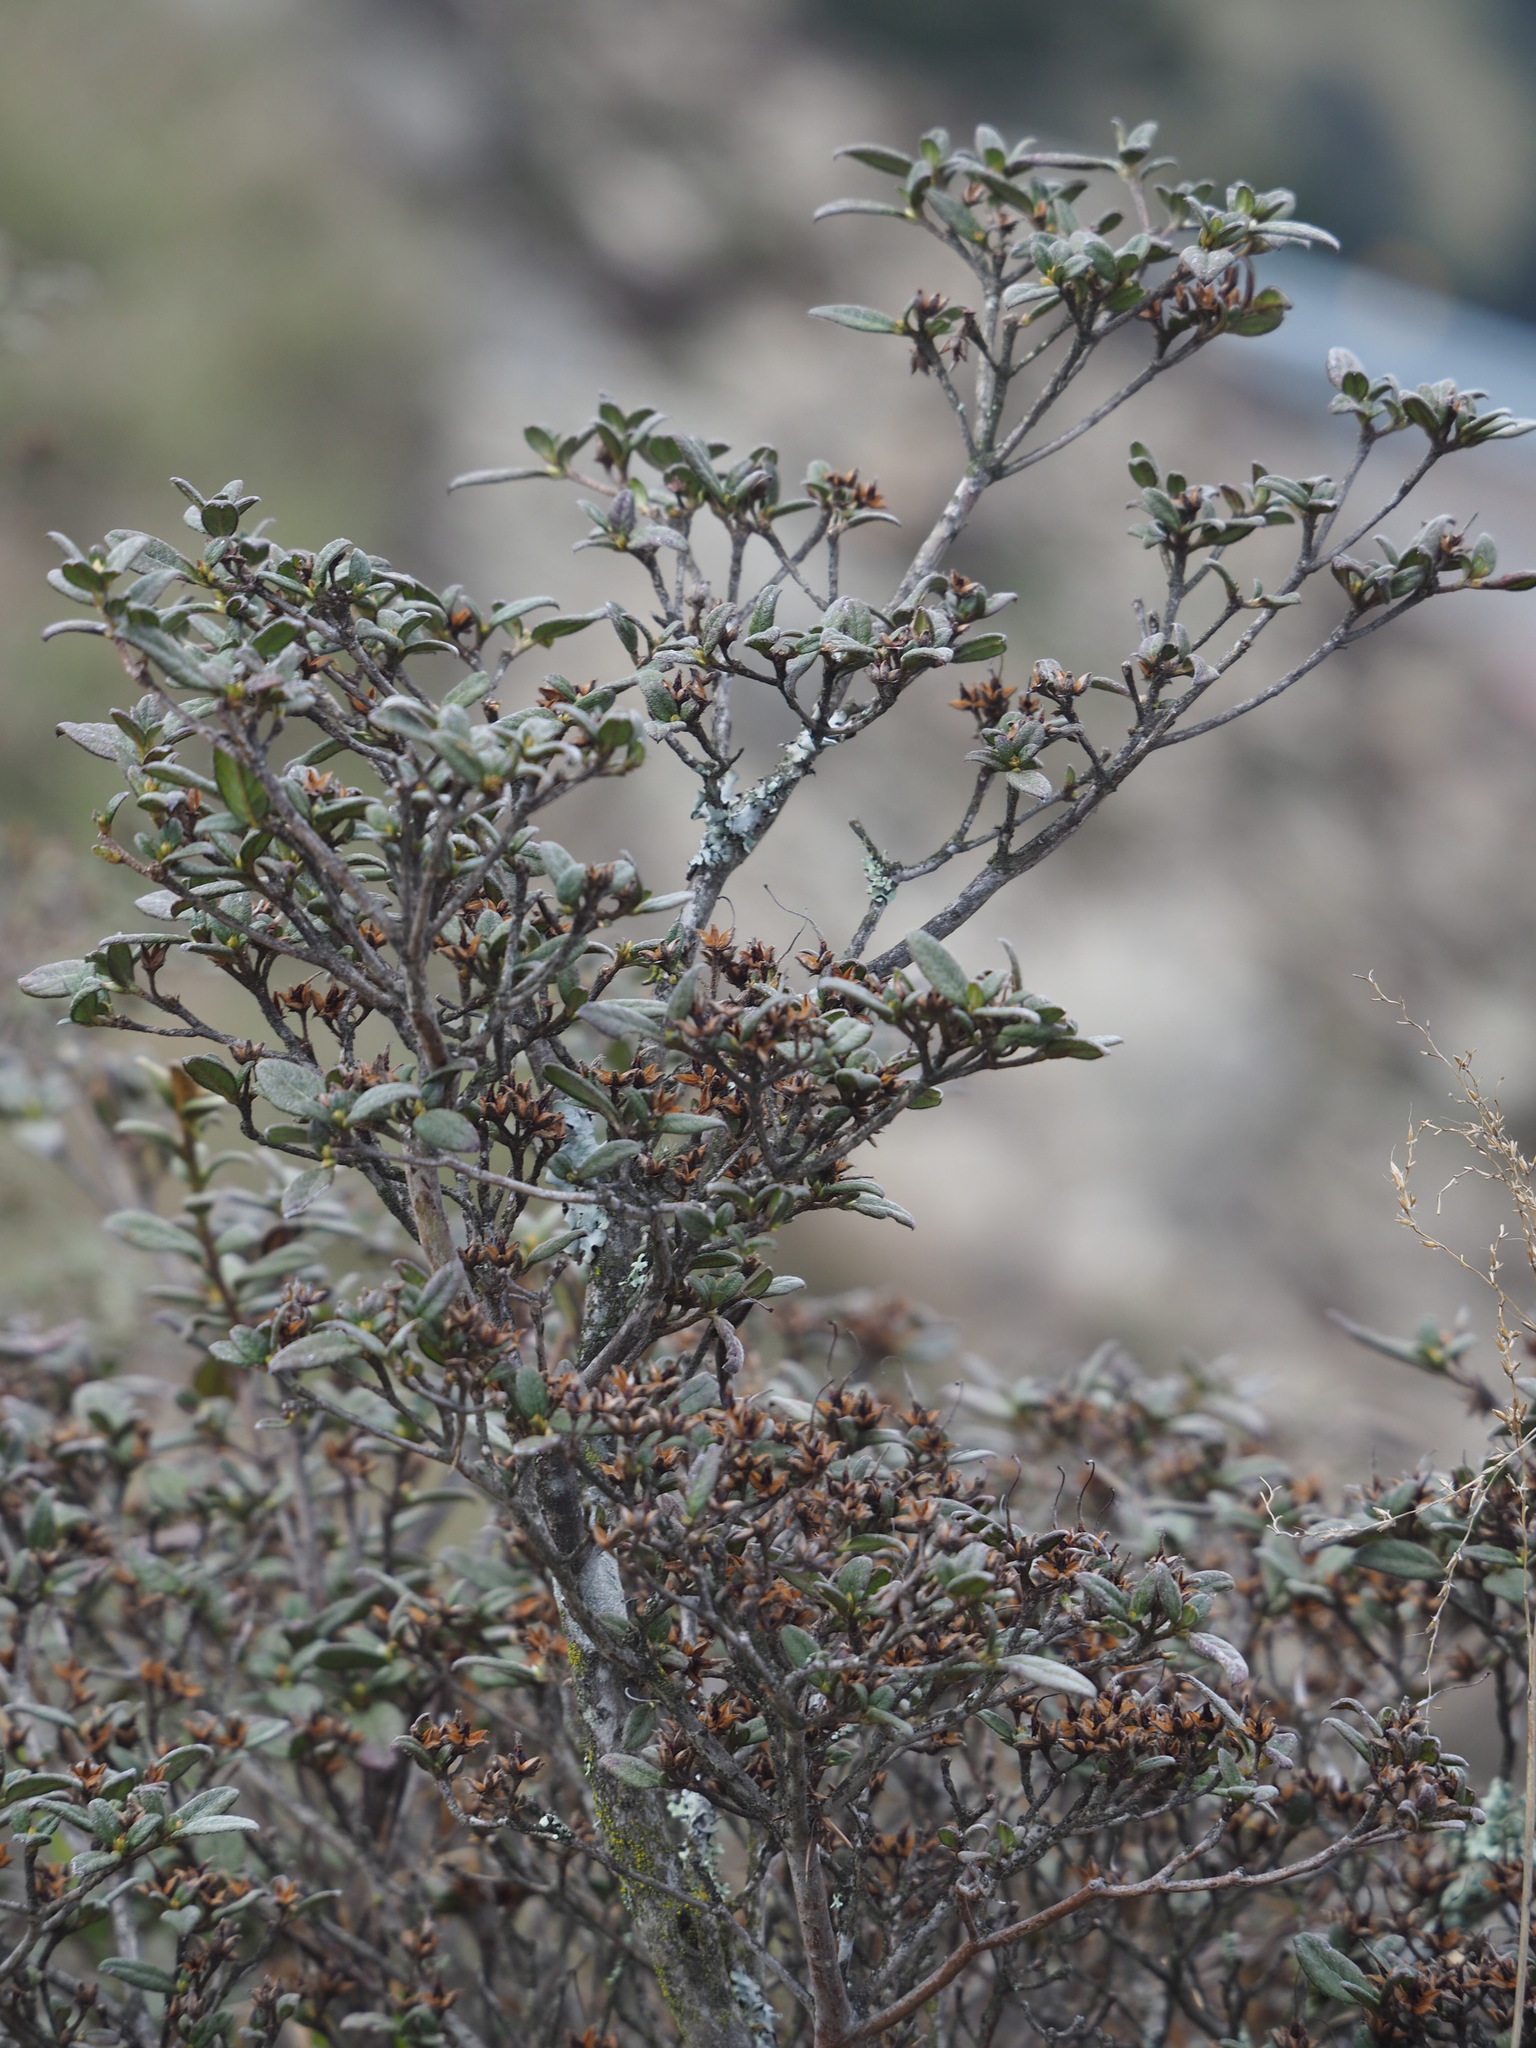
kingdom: Plantae
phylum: Tracheophyta
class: Magnoliopsida
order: Ericales
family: Ericaceae
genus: Rhododendron
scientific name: Rhododendron taiwanalpinum
